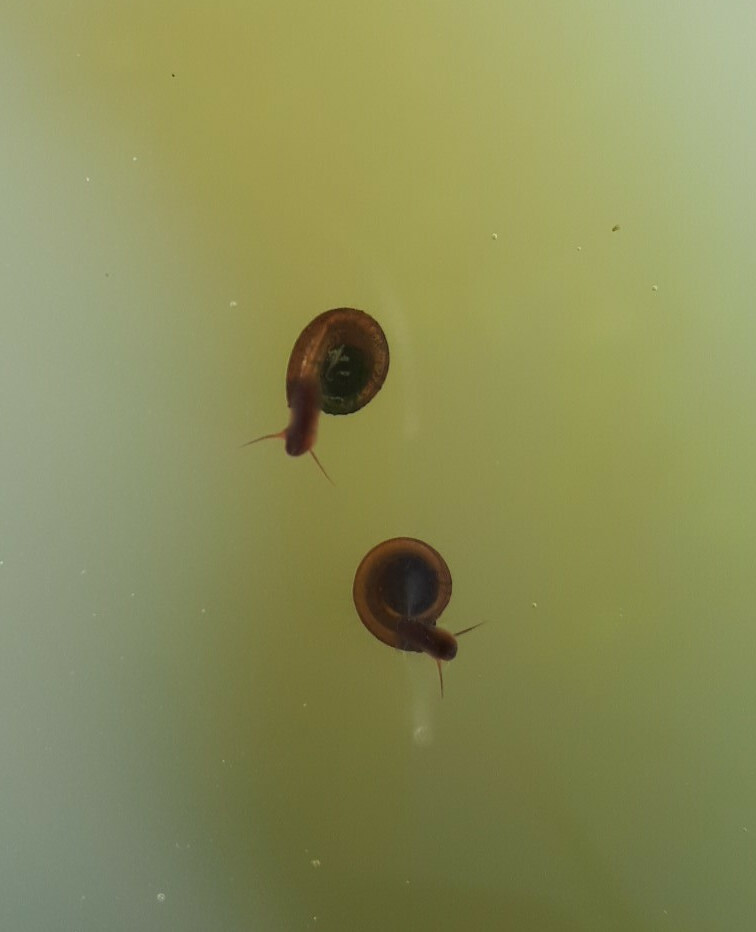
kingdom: Animalia
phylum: Mollusca
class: Gastropoda
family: Planorbidae
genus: Anisus
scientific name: Anisus leucostoma
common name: Button ram's horn
